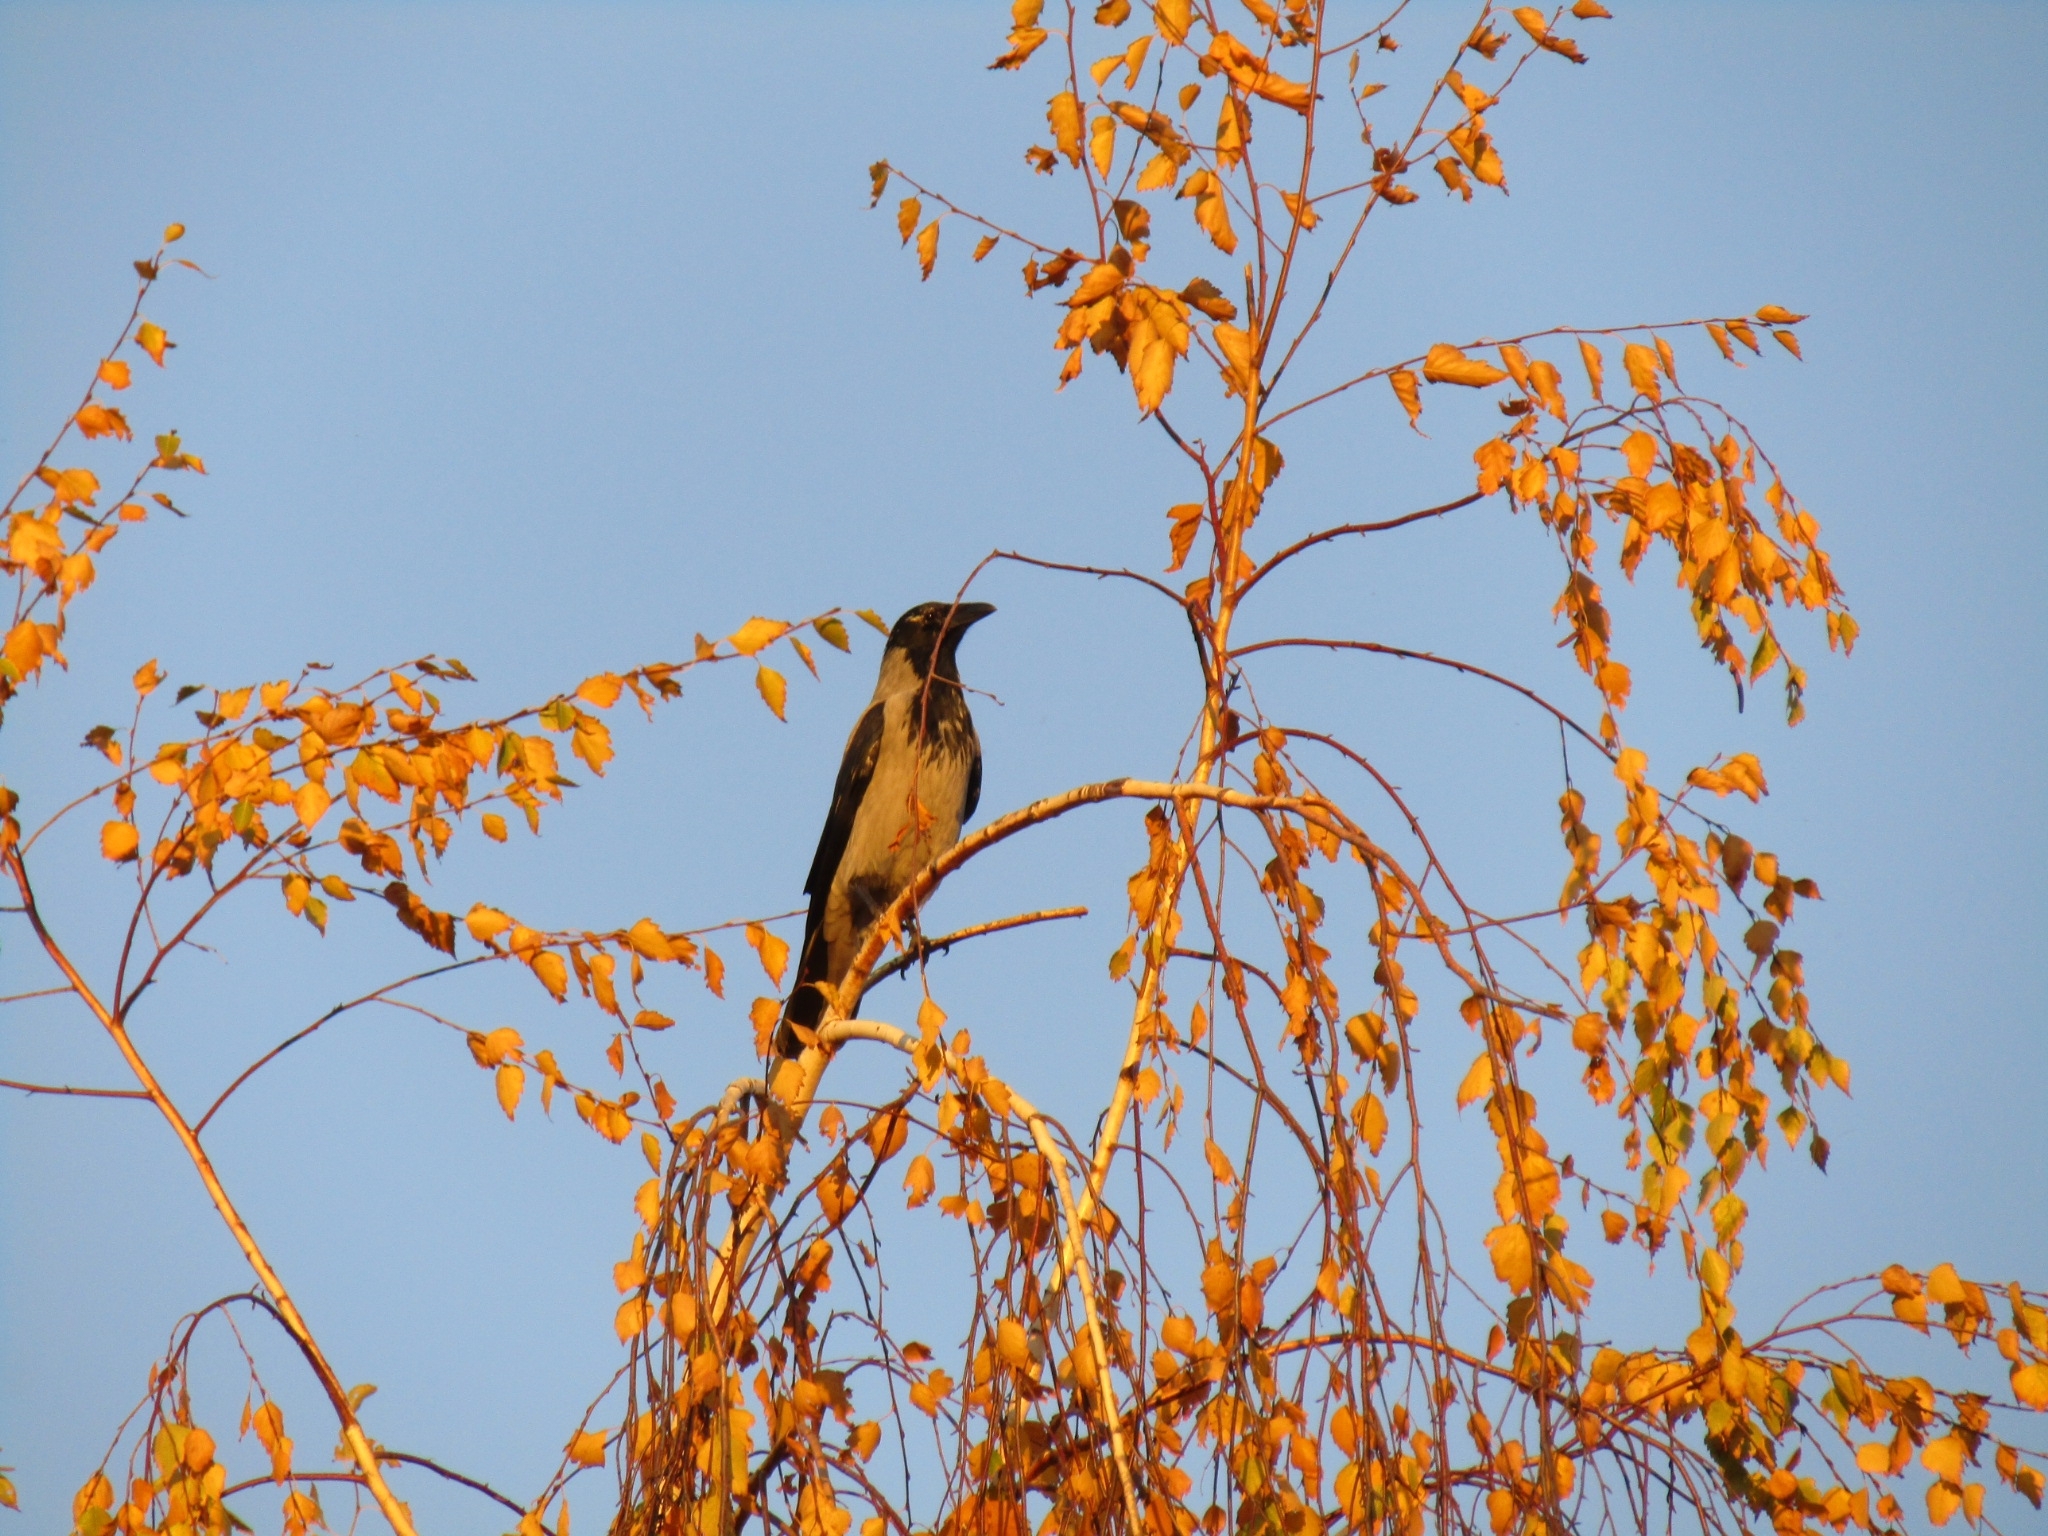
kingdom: Animalia
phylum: Chordata
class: Aves
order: Passeriformes
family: Corvidae
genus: Corvus
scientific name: Corvus cornix
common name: Hooded crow
